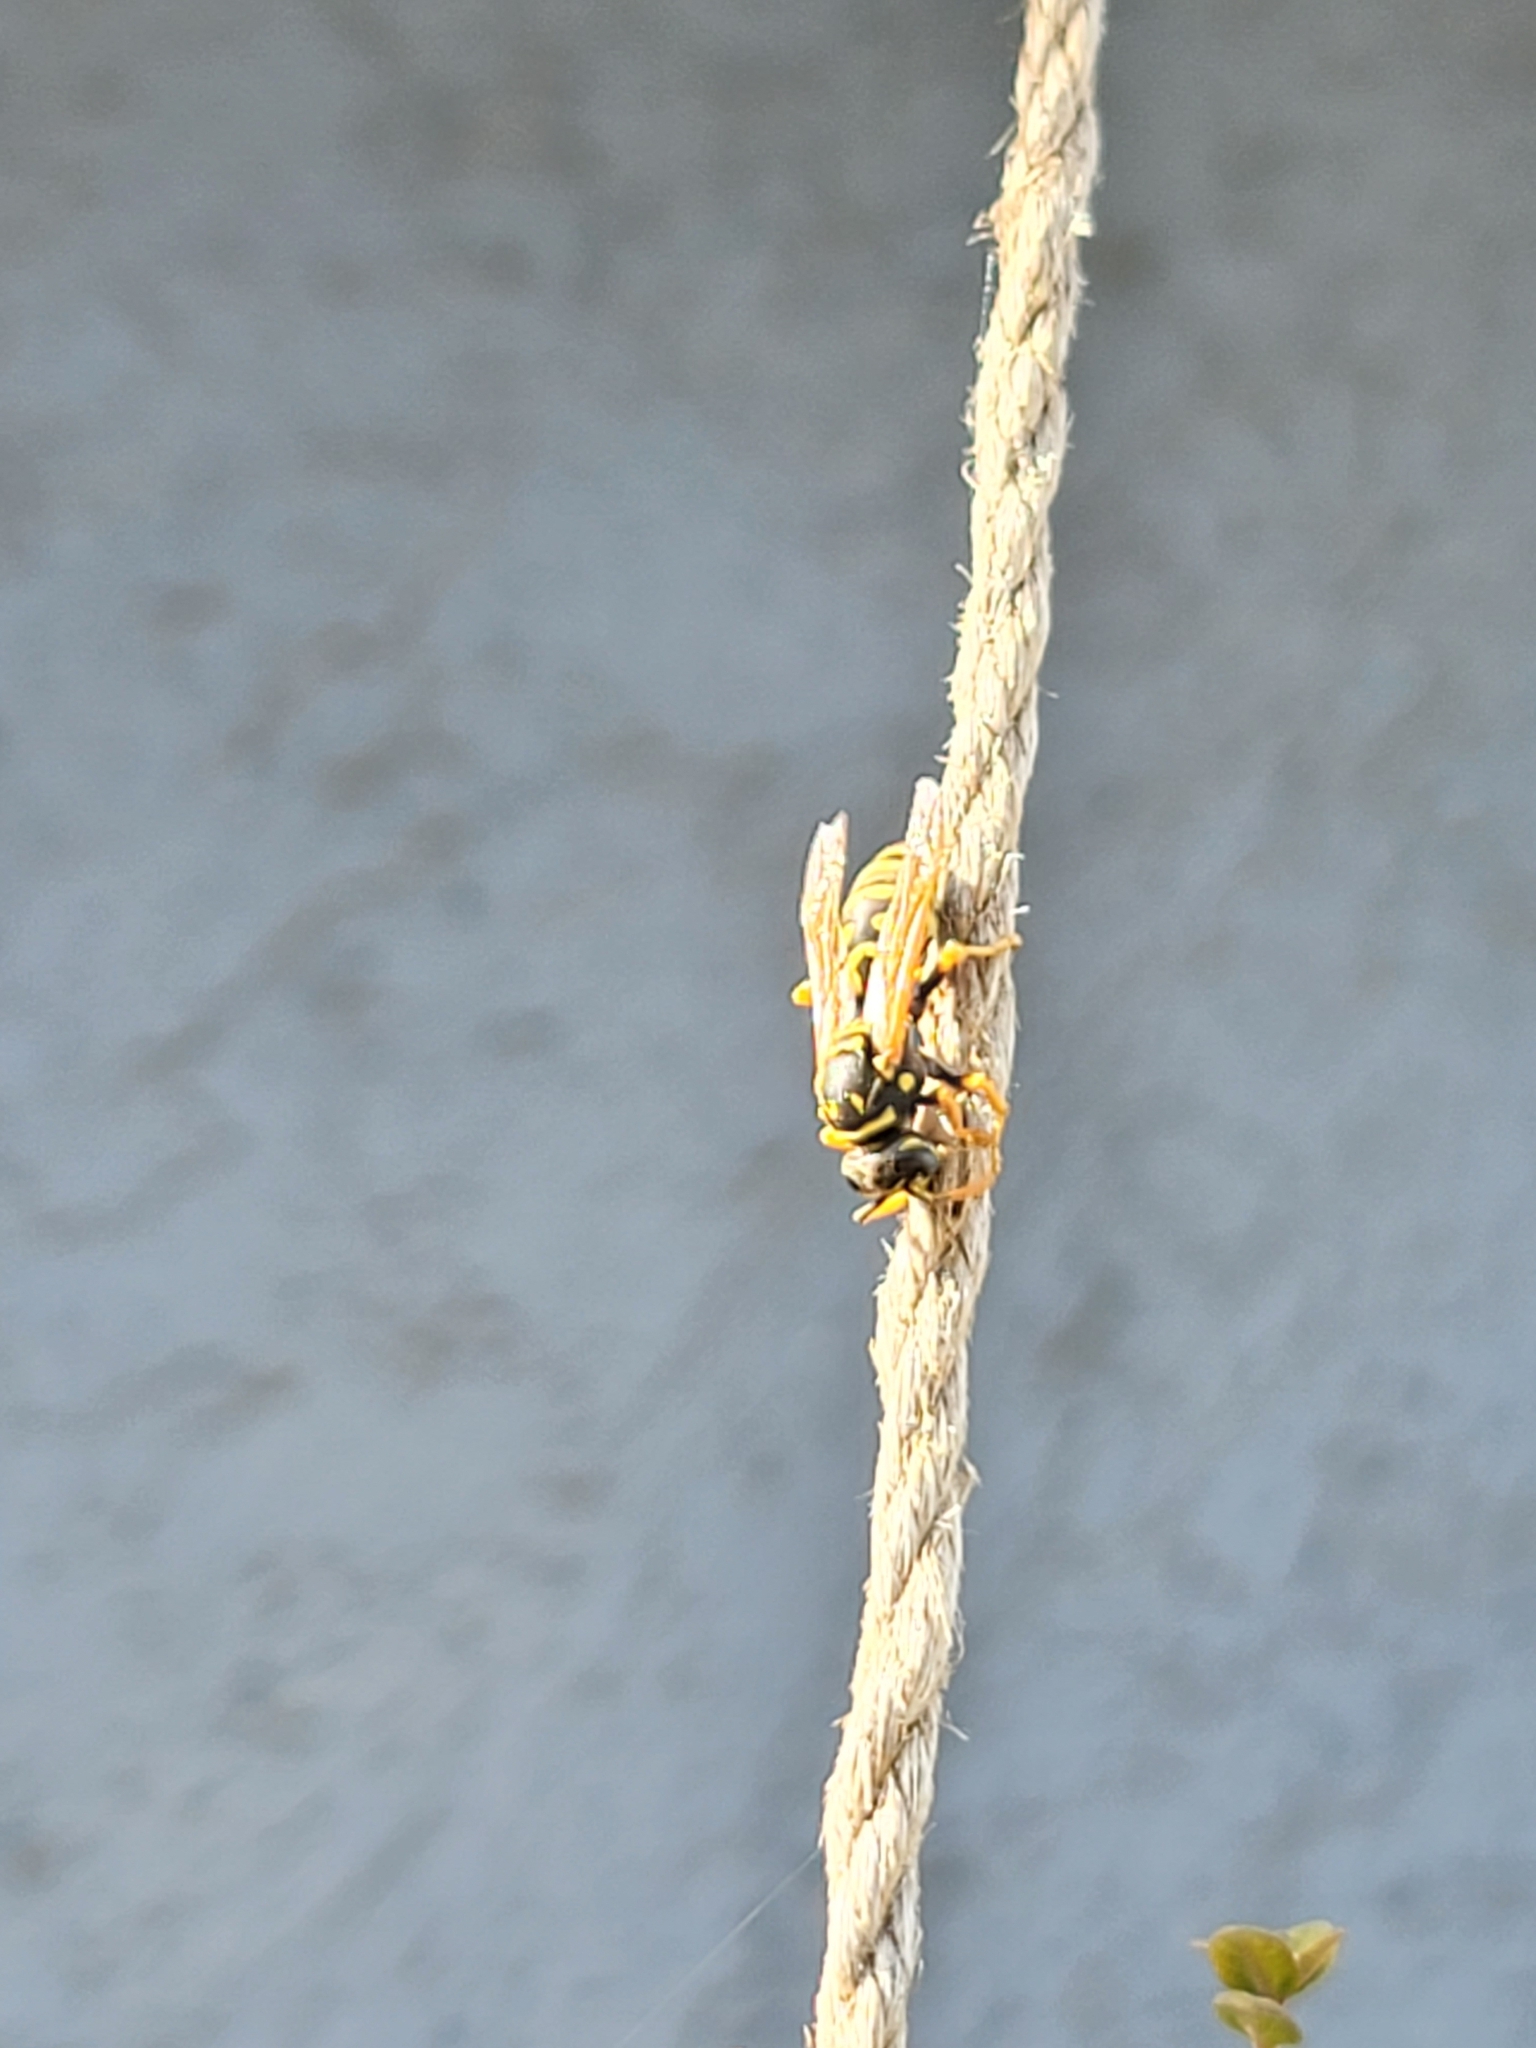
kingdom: Animalia
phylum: Arthropoda
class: Insecta
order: Hymenoptera
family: Eumenidae
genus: Polistes
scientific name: Polistes dominula
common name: Paper wasp
